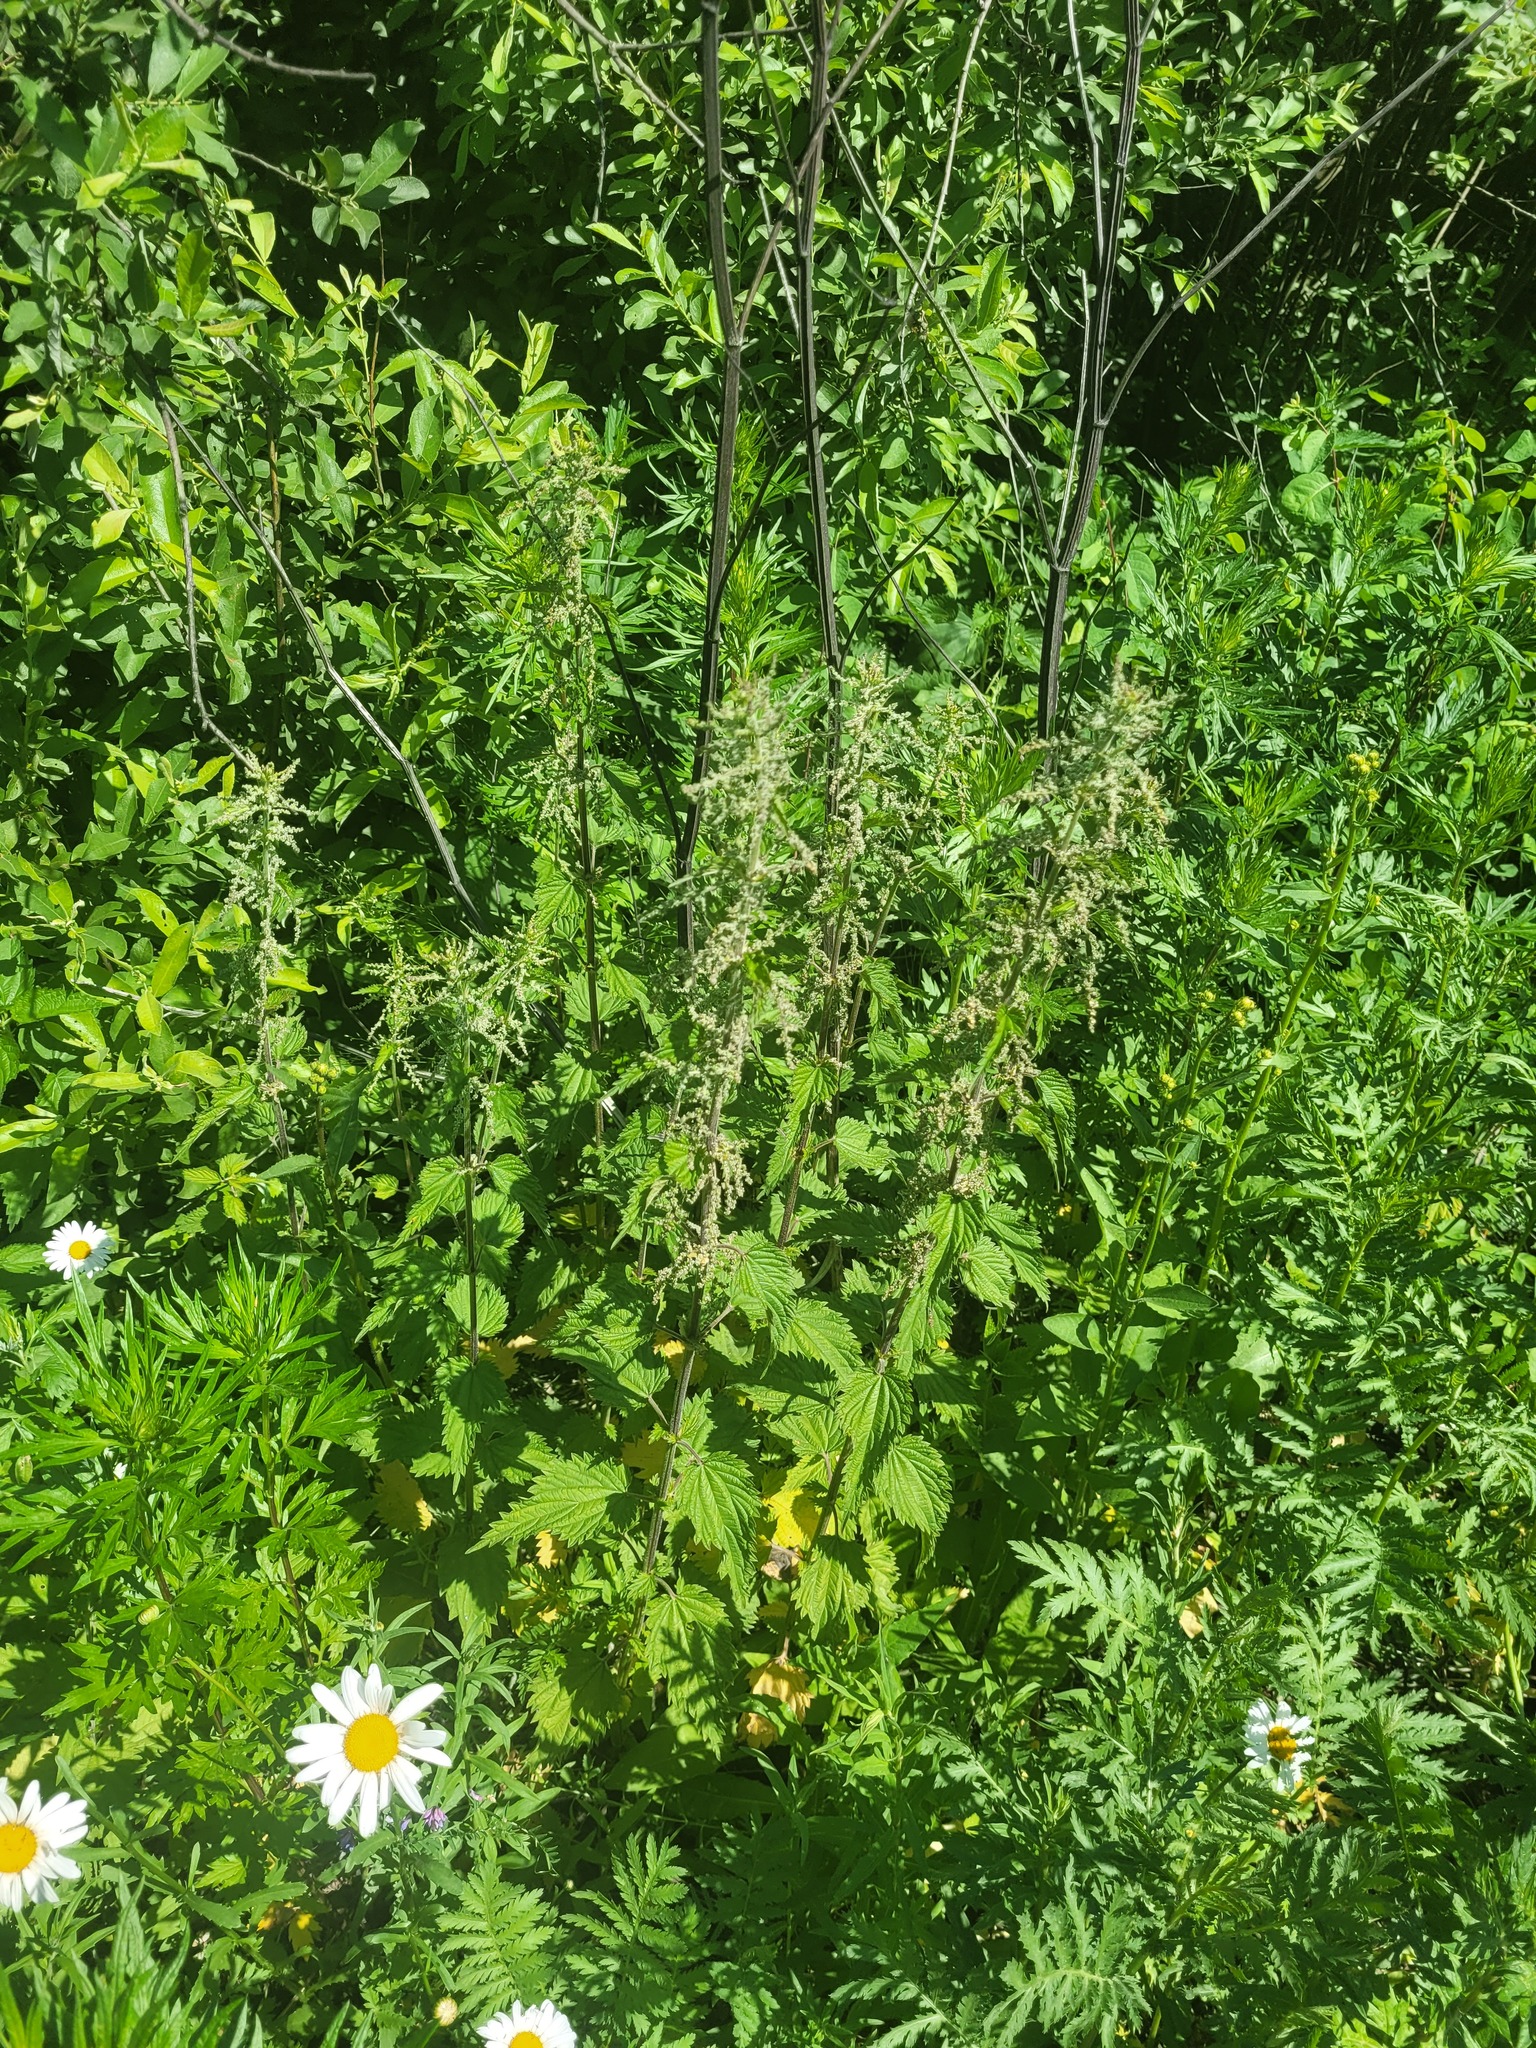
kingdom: Plantae
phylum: Tracheophyta
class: Magnoliopsida
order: Rosales
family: Urticaceae
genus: Urtica
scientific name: Urtica dioica
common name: Common nettle
